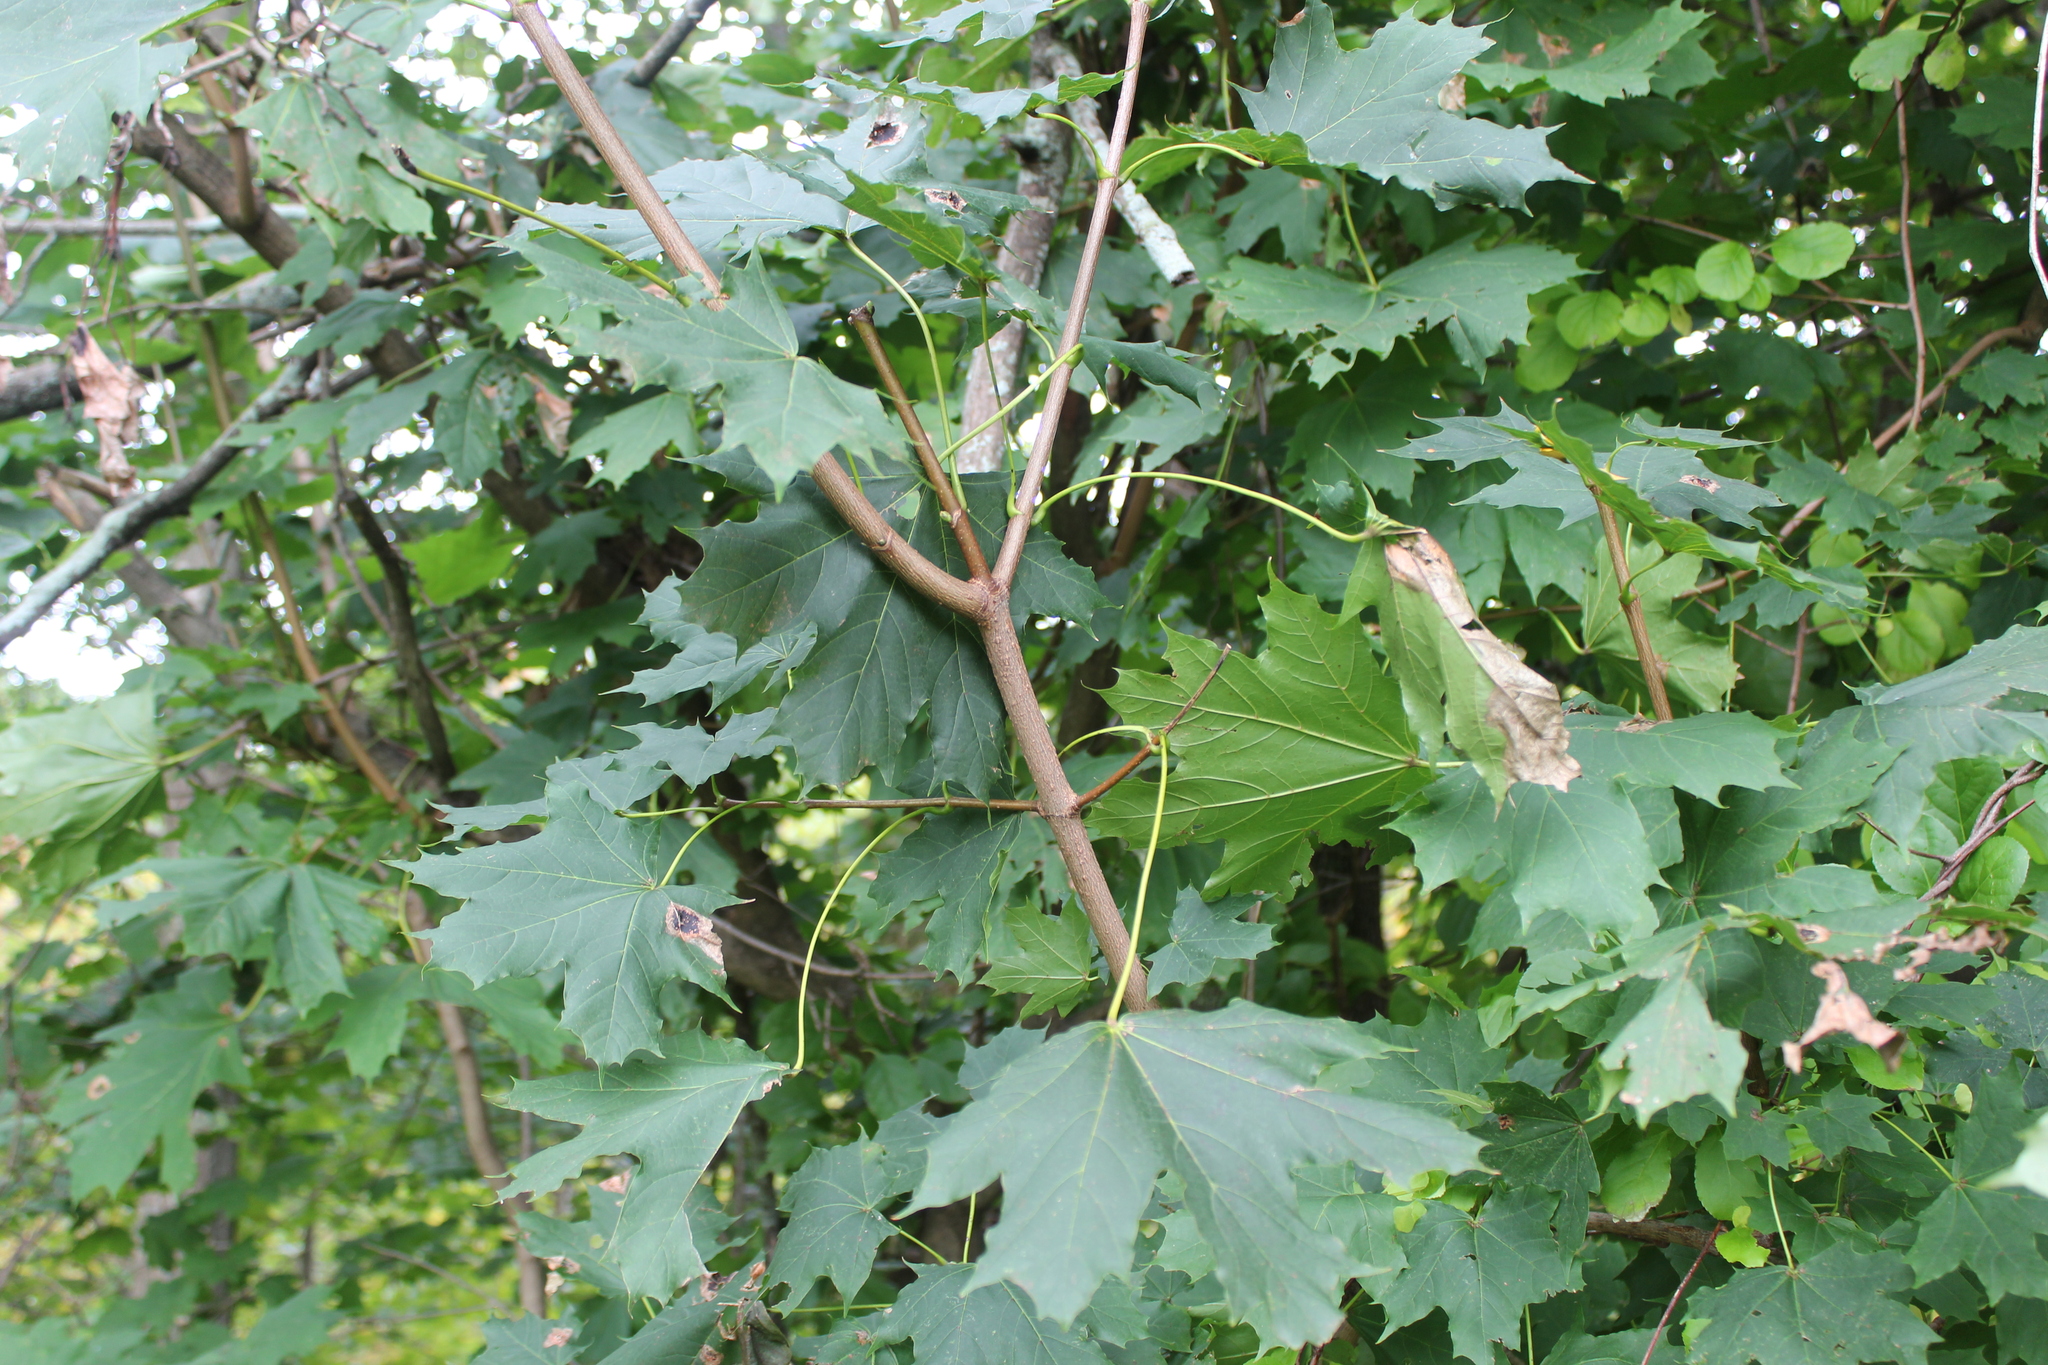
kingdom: Plantae
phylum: Tracheophyta
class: Magnoliopsida
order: Sapindales
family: Sapindaceae
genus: Acer
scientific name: Acer platanoides
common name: Norway maple
